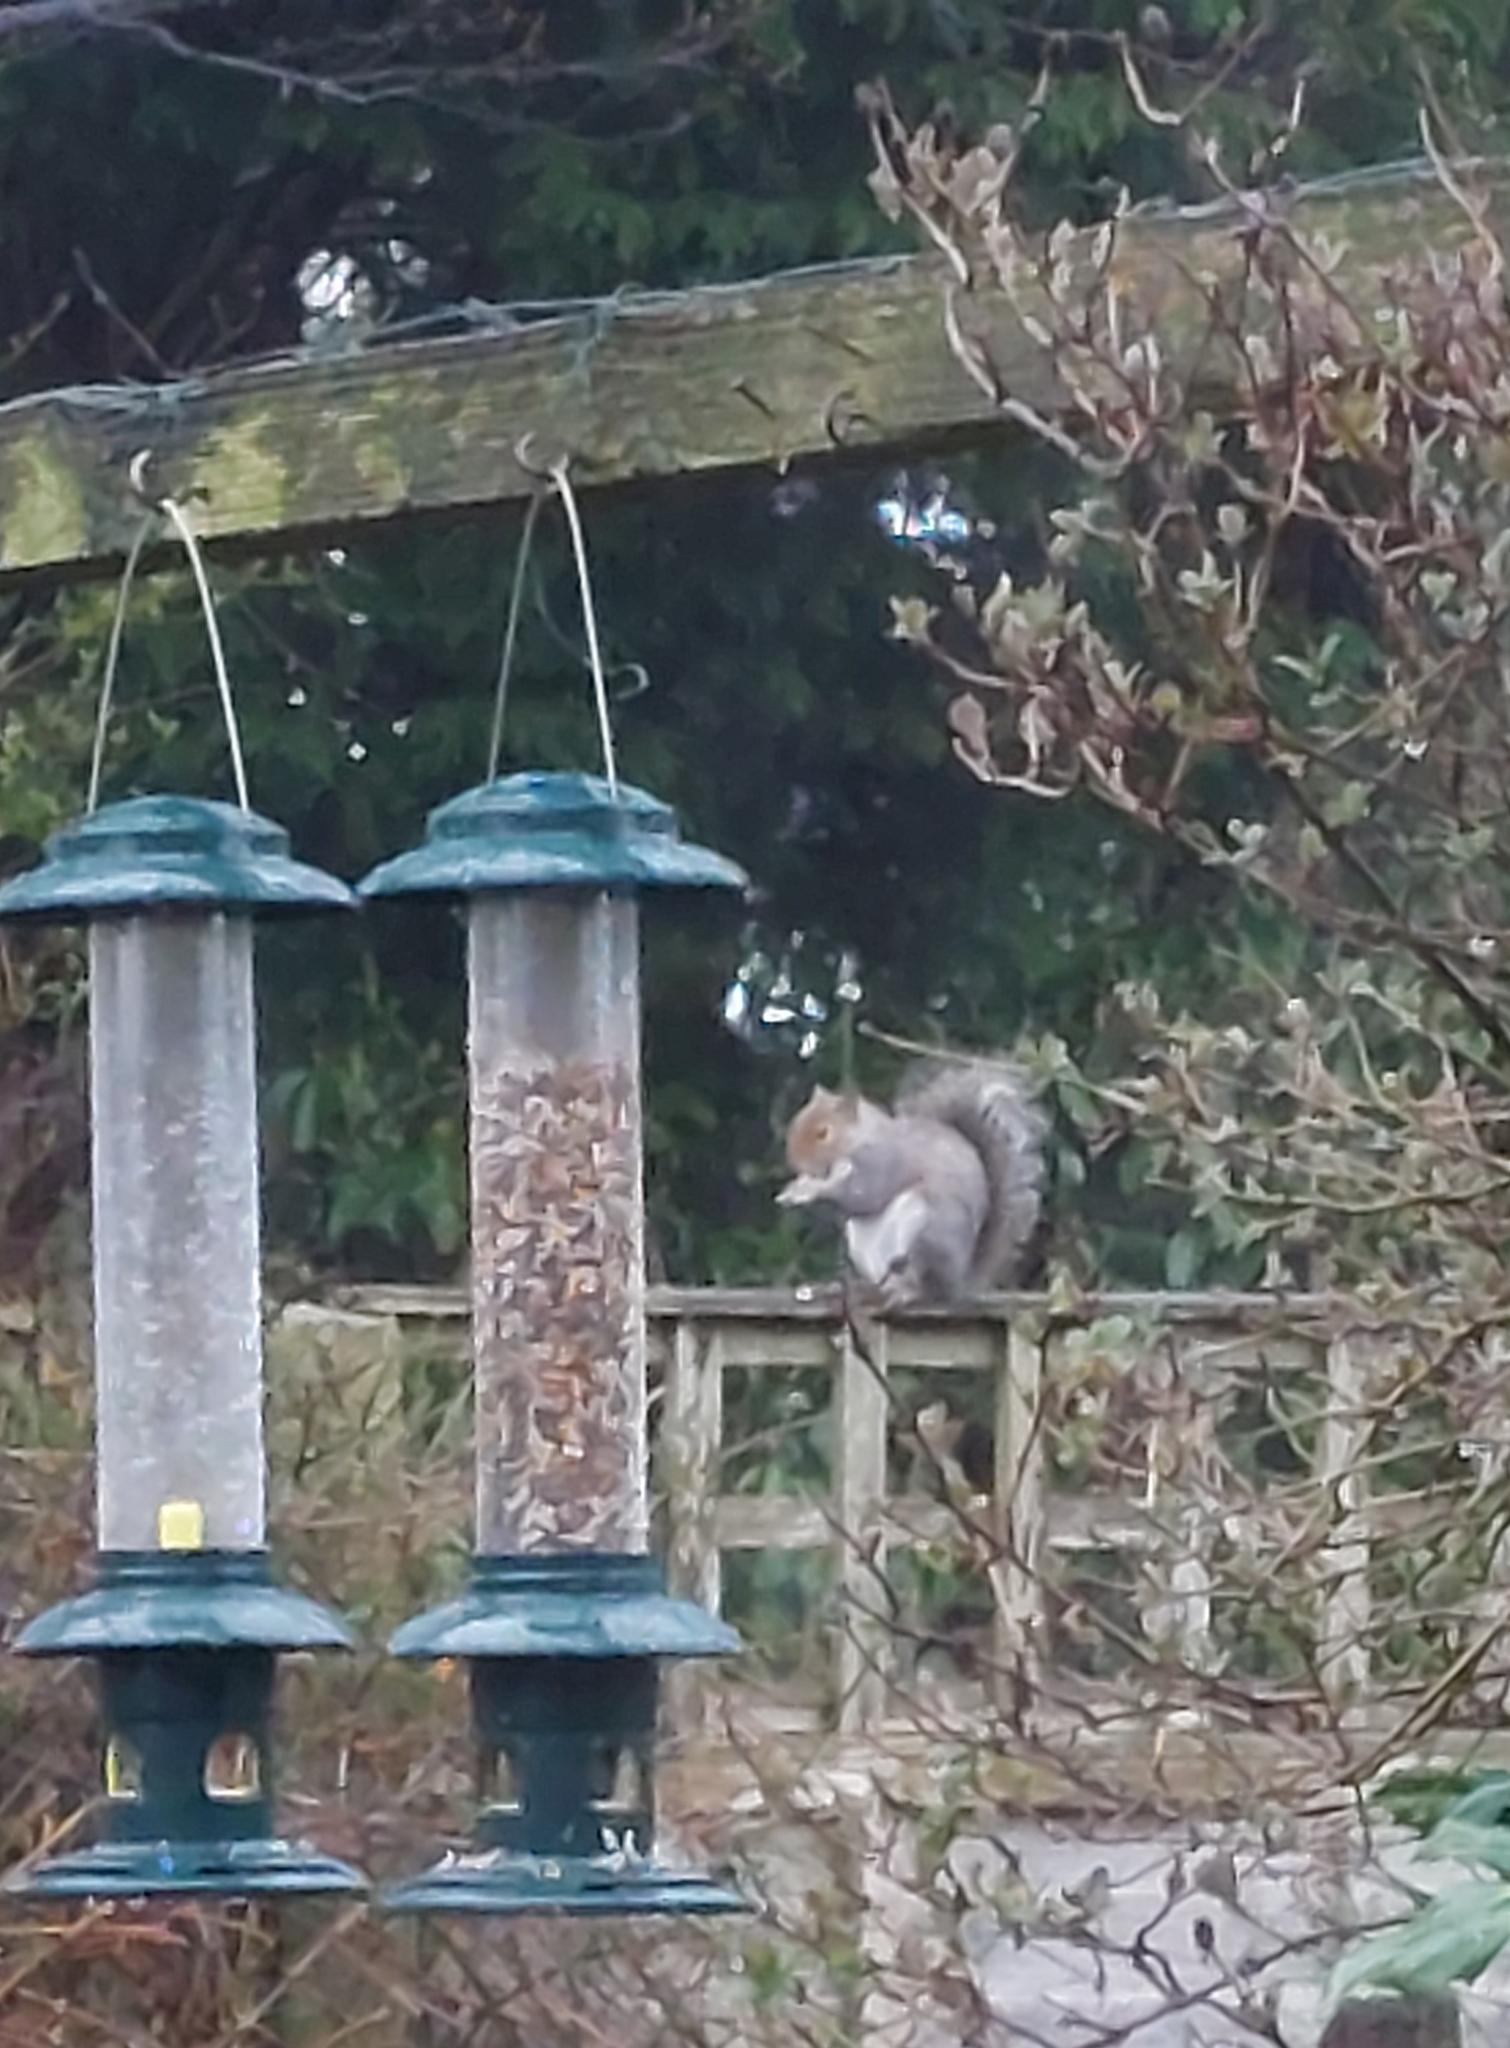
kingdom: Animalia
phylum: Chordata
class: Mammalia
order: Rodentia
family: Sciuridae
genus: Sciurus
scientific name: Sciurus carolinensis
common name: Eastern gray squirrel
